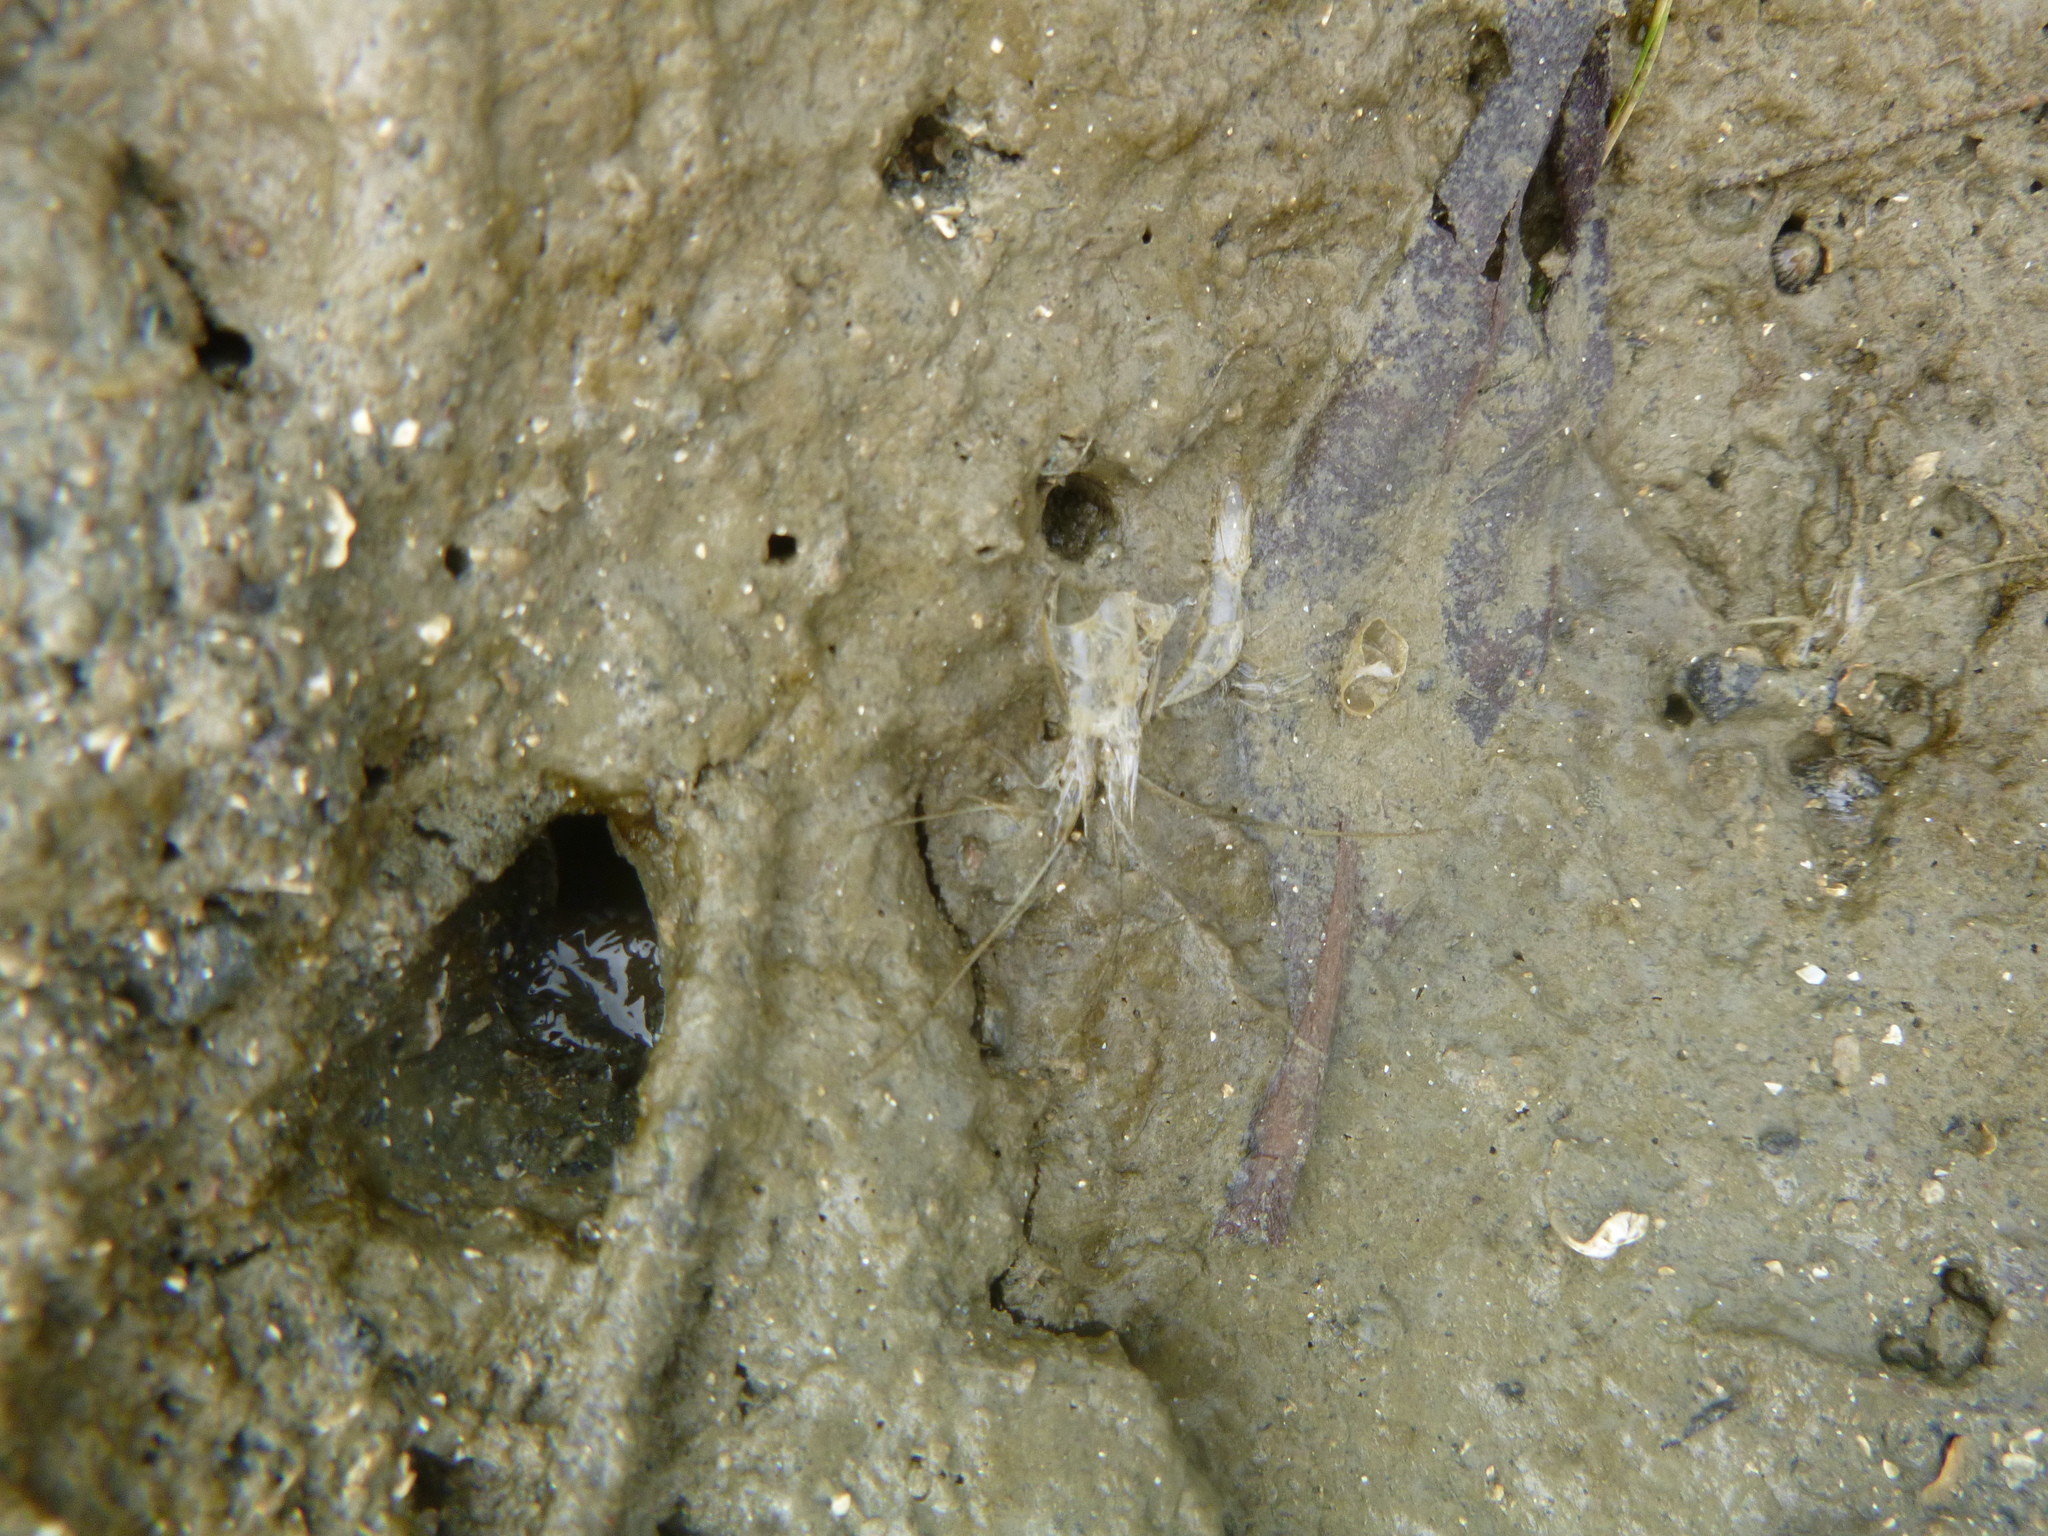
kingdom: Animalia
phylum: Arthropoda
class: Malacostraca
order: Decapoda
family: Palaemonidae
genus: Palaemon
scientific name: Palaemon affinis
